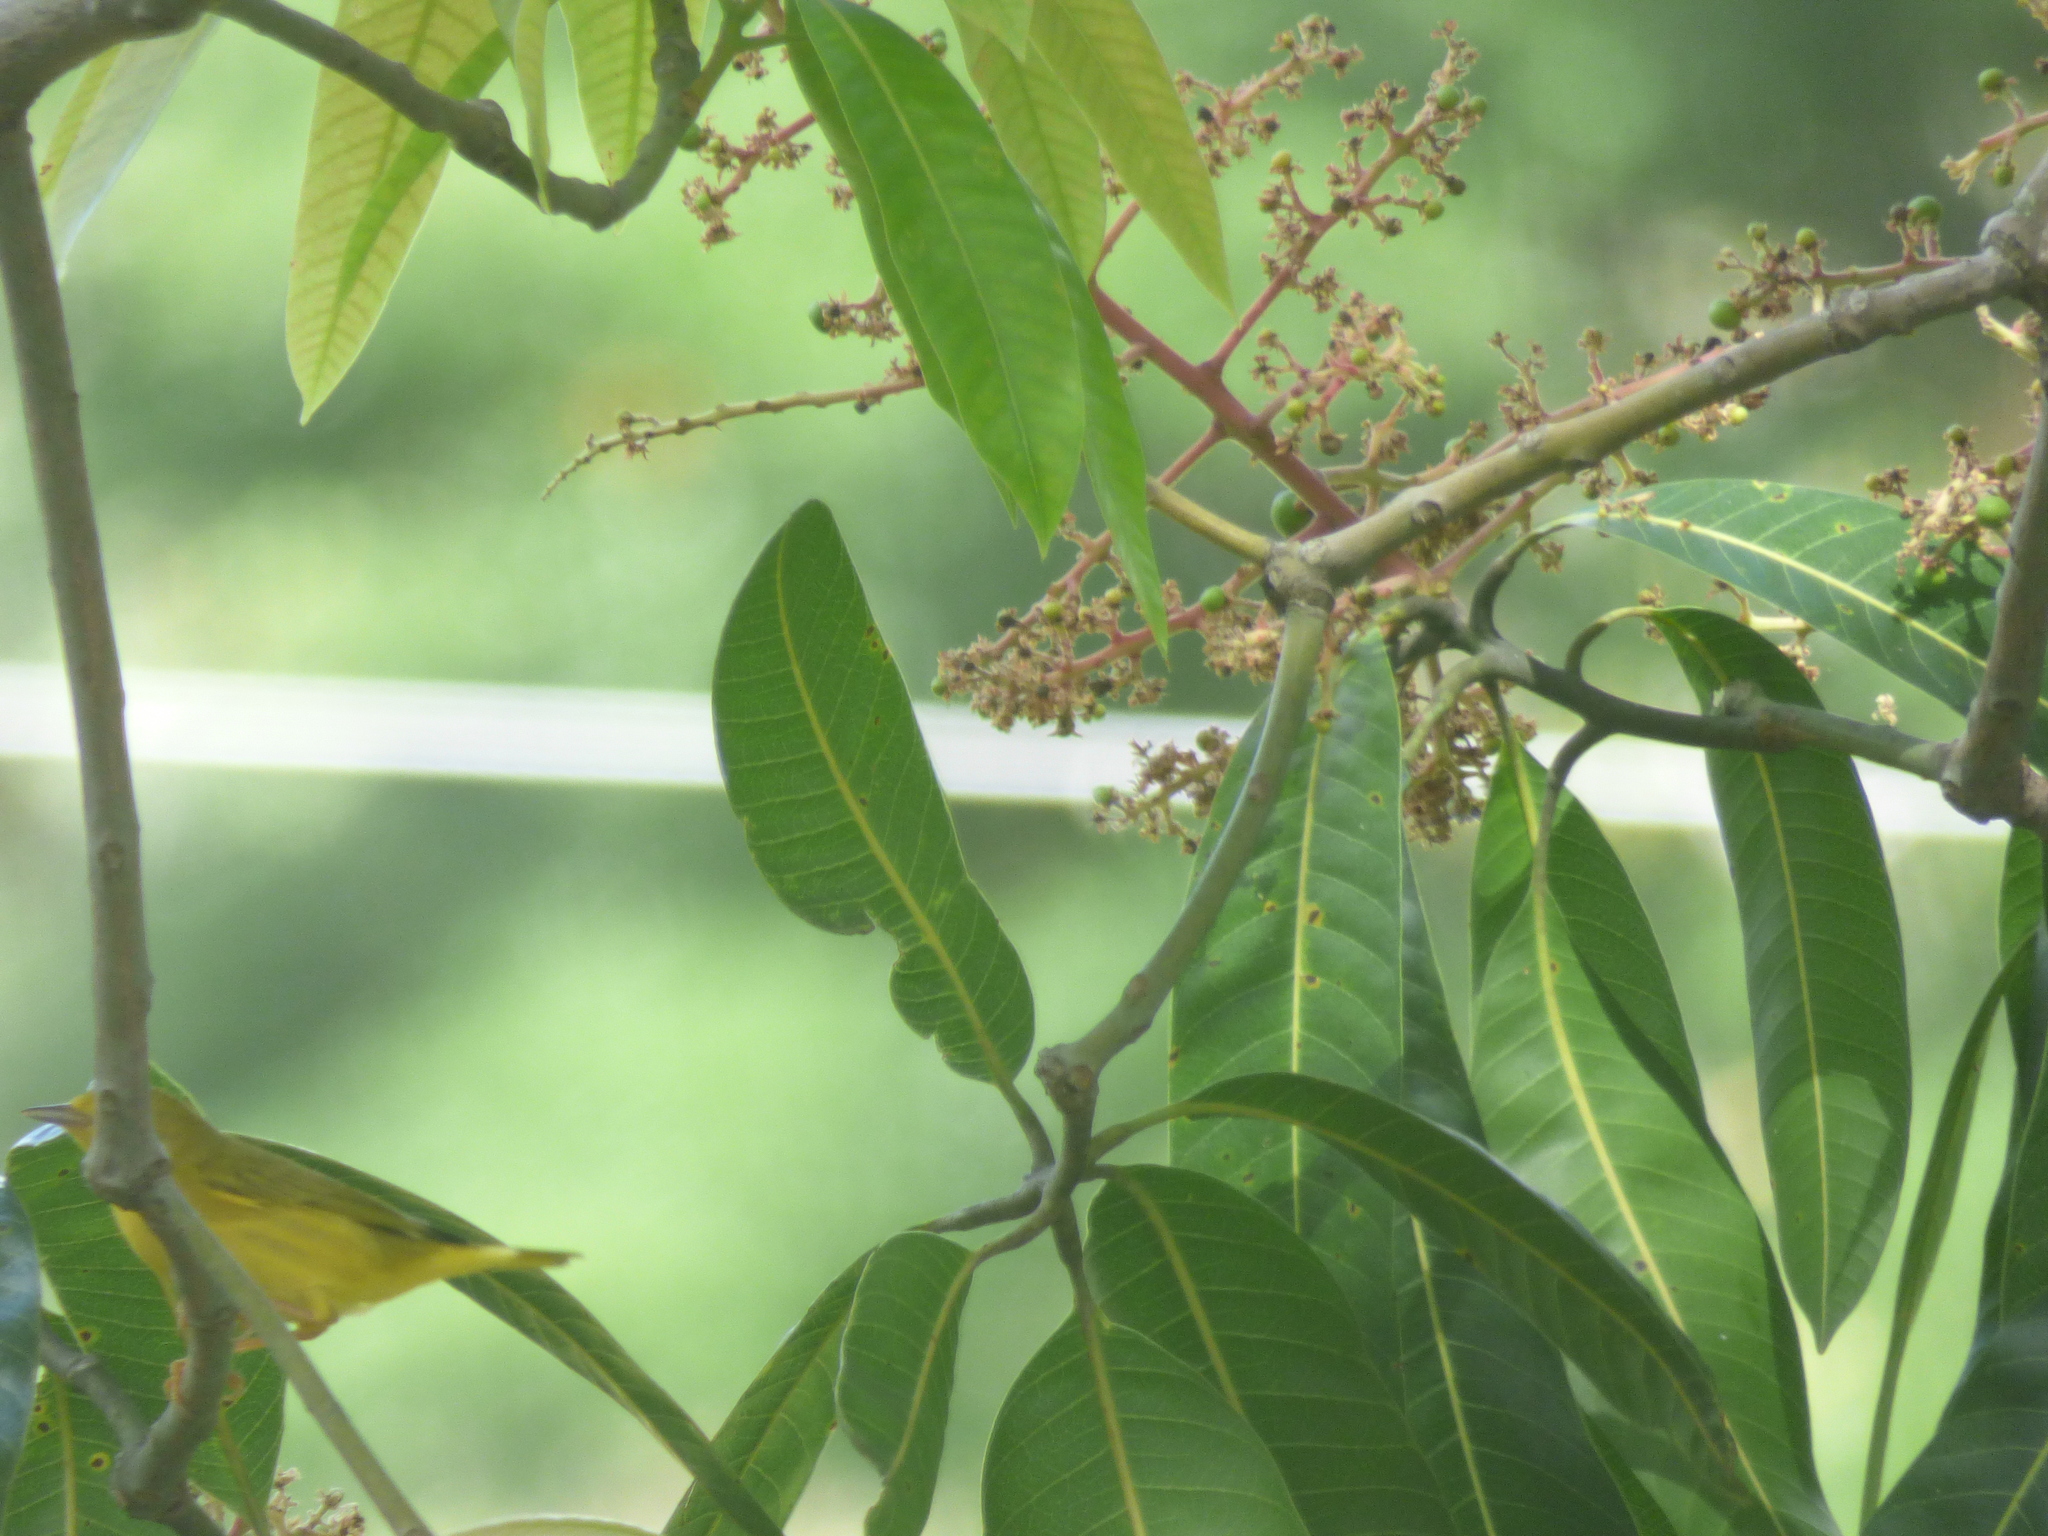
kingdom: Animalia
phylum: Chordata
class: Aves
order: Passeriformes
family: Parulidae
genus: Setophaga
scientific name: Setophaga petechia
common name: Yellow warbler
